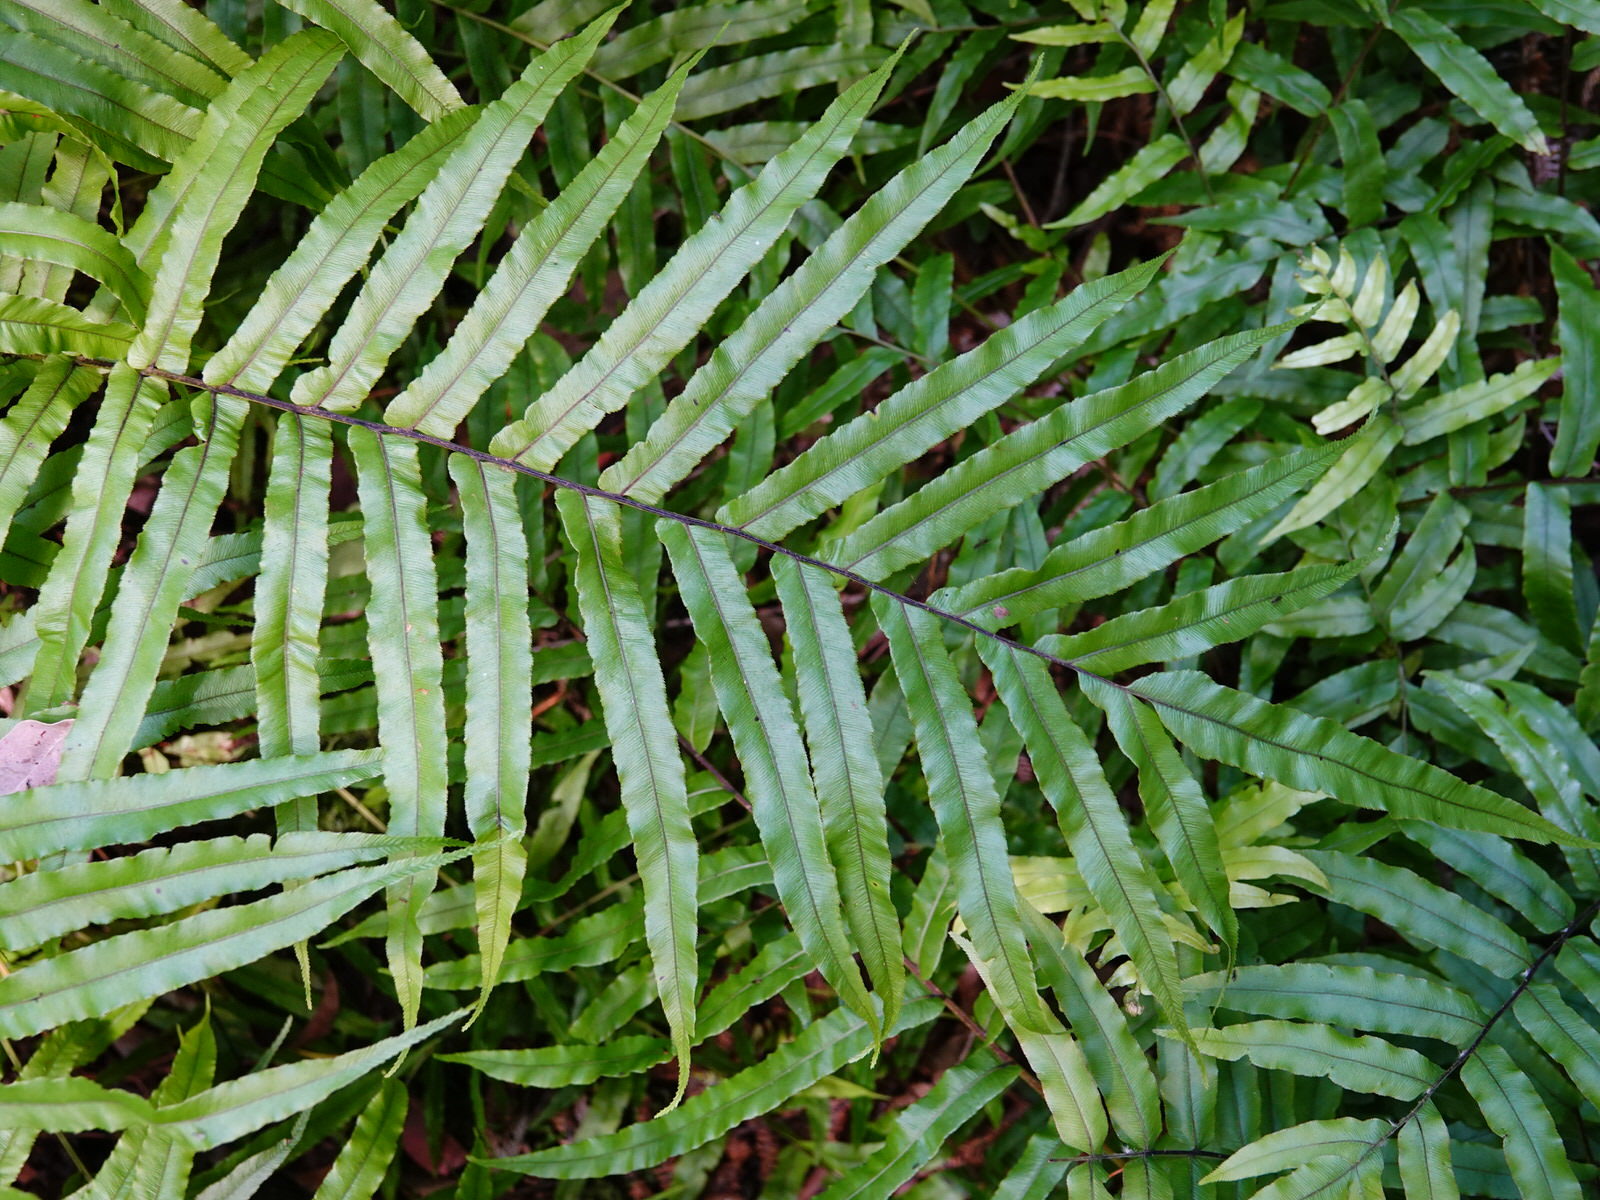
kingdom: Plantae
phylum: Tracheophyta
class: Polypodiopsida
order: Polypodiales
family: Blechnaceae
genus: Parablechnum
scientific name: Parablechnum minus
